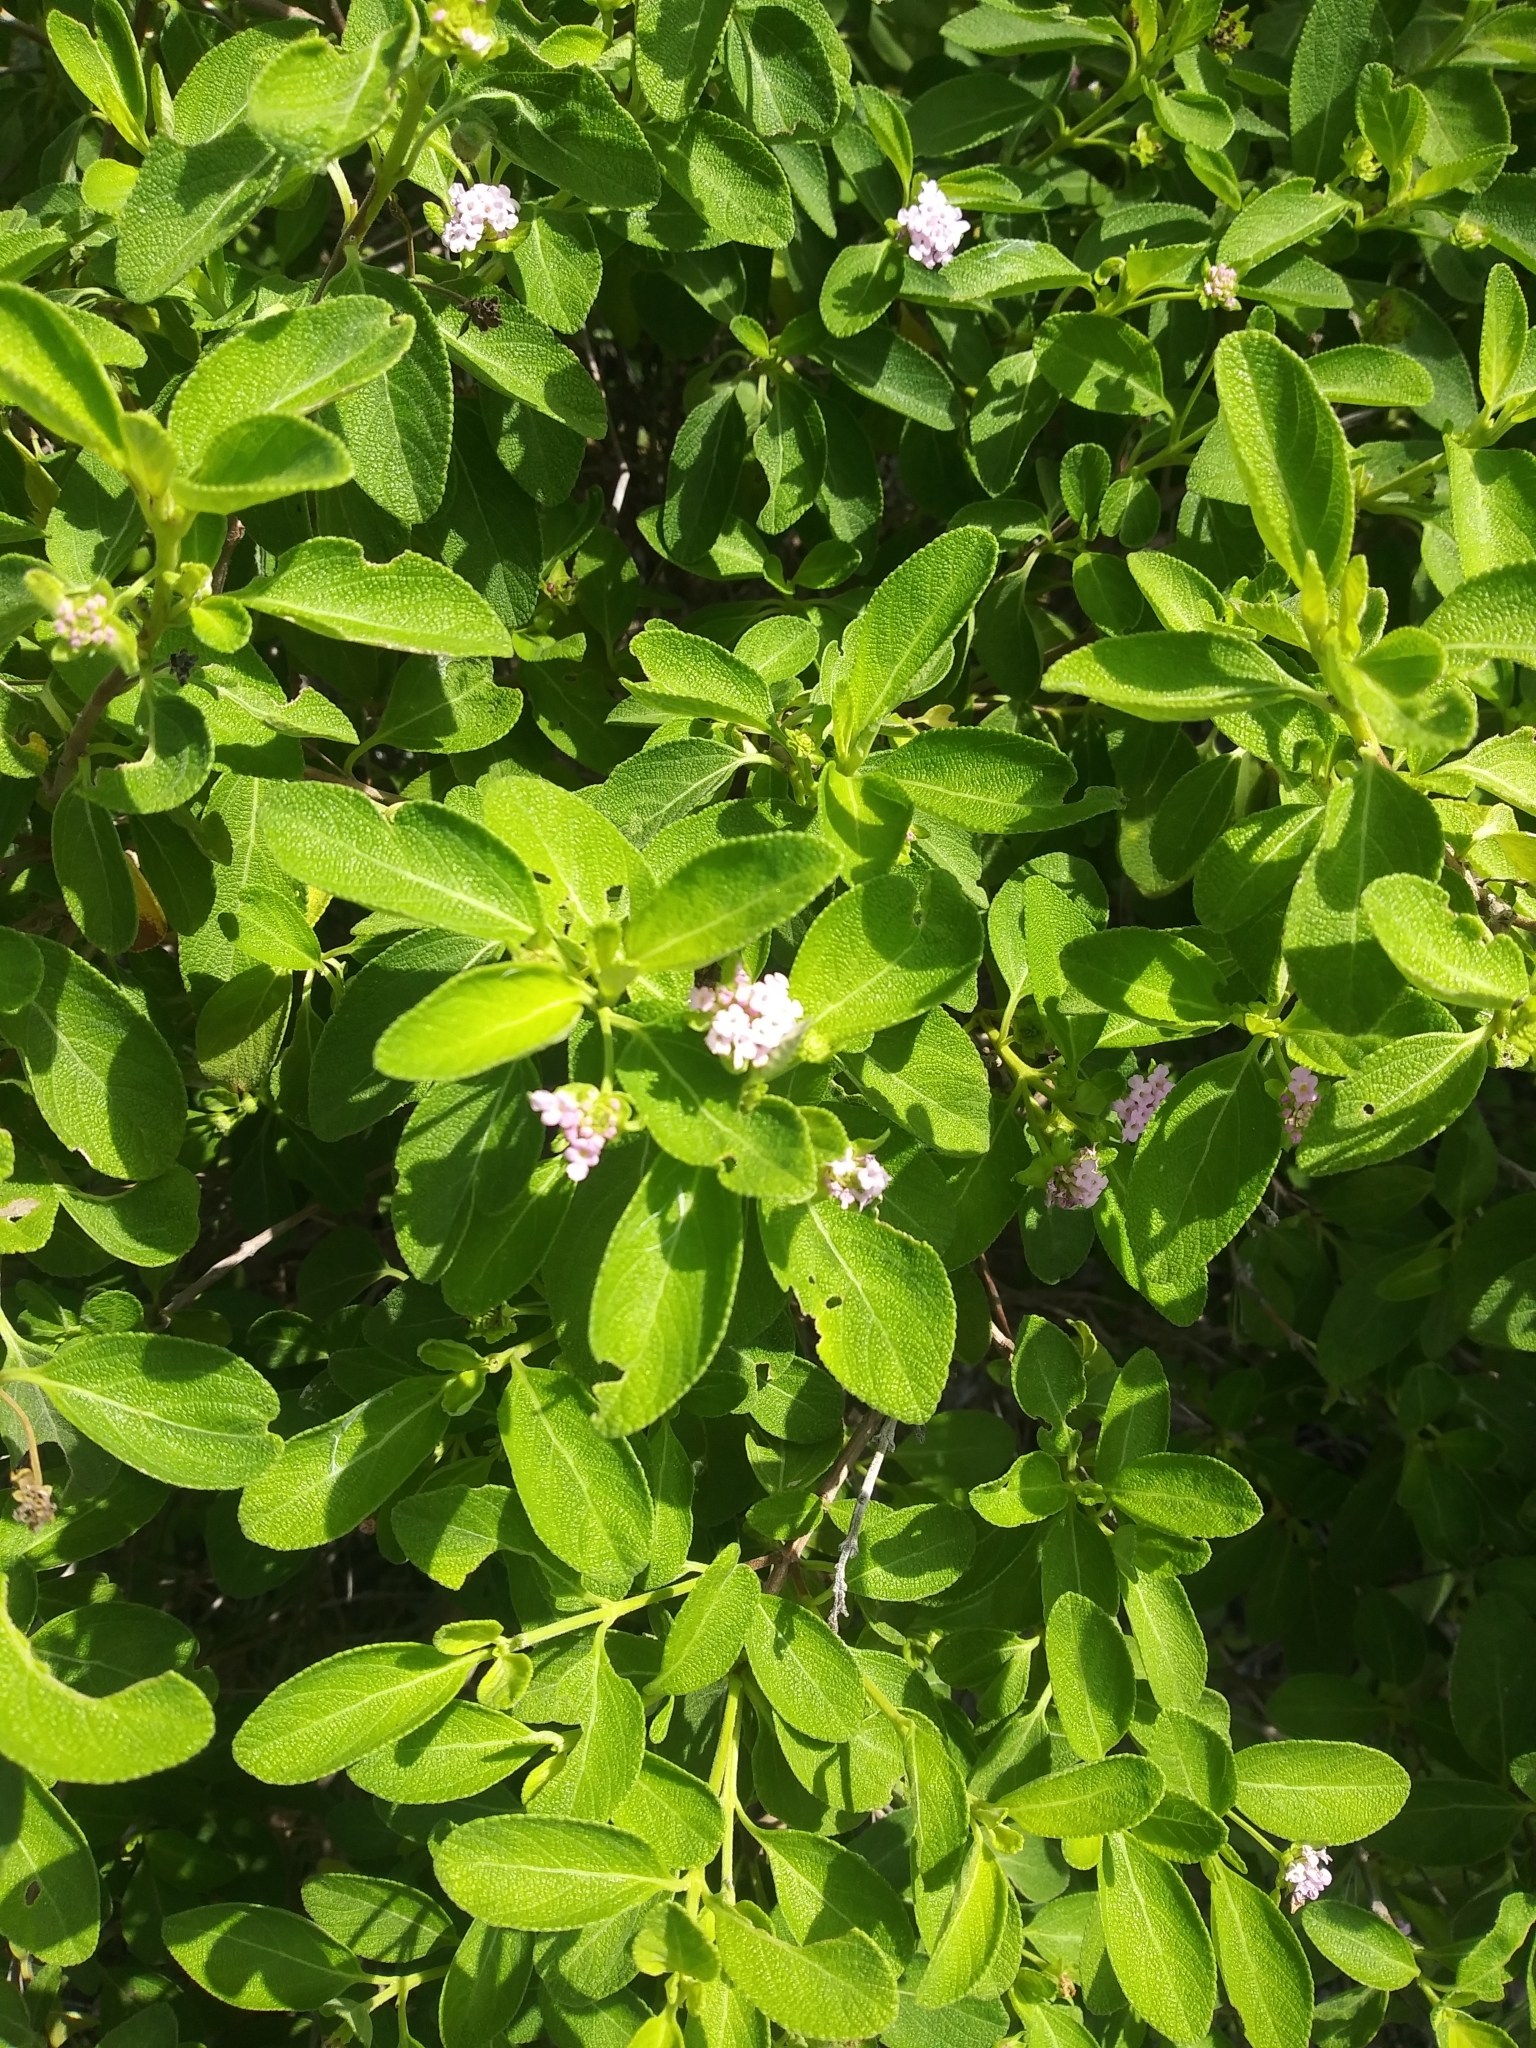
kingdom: Plantae
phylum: Tracheophyta
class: Magnoliopsida
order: Lamiales
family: Verbenaceae
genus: Lantana
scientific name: Lantana involucrata
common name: Black sage
